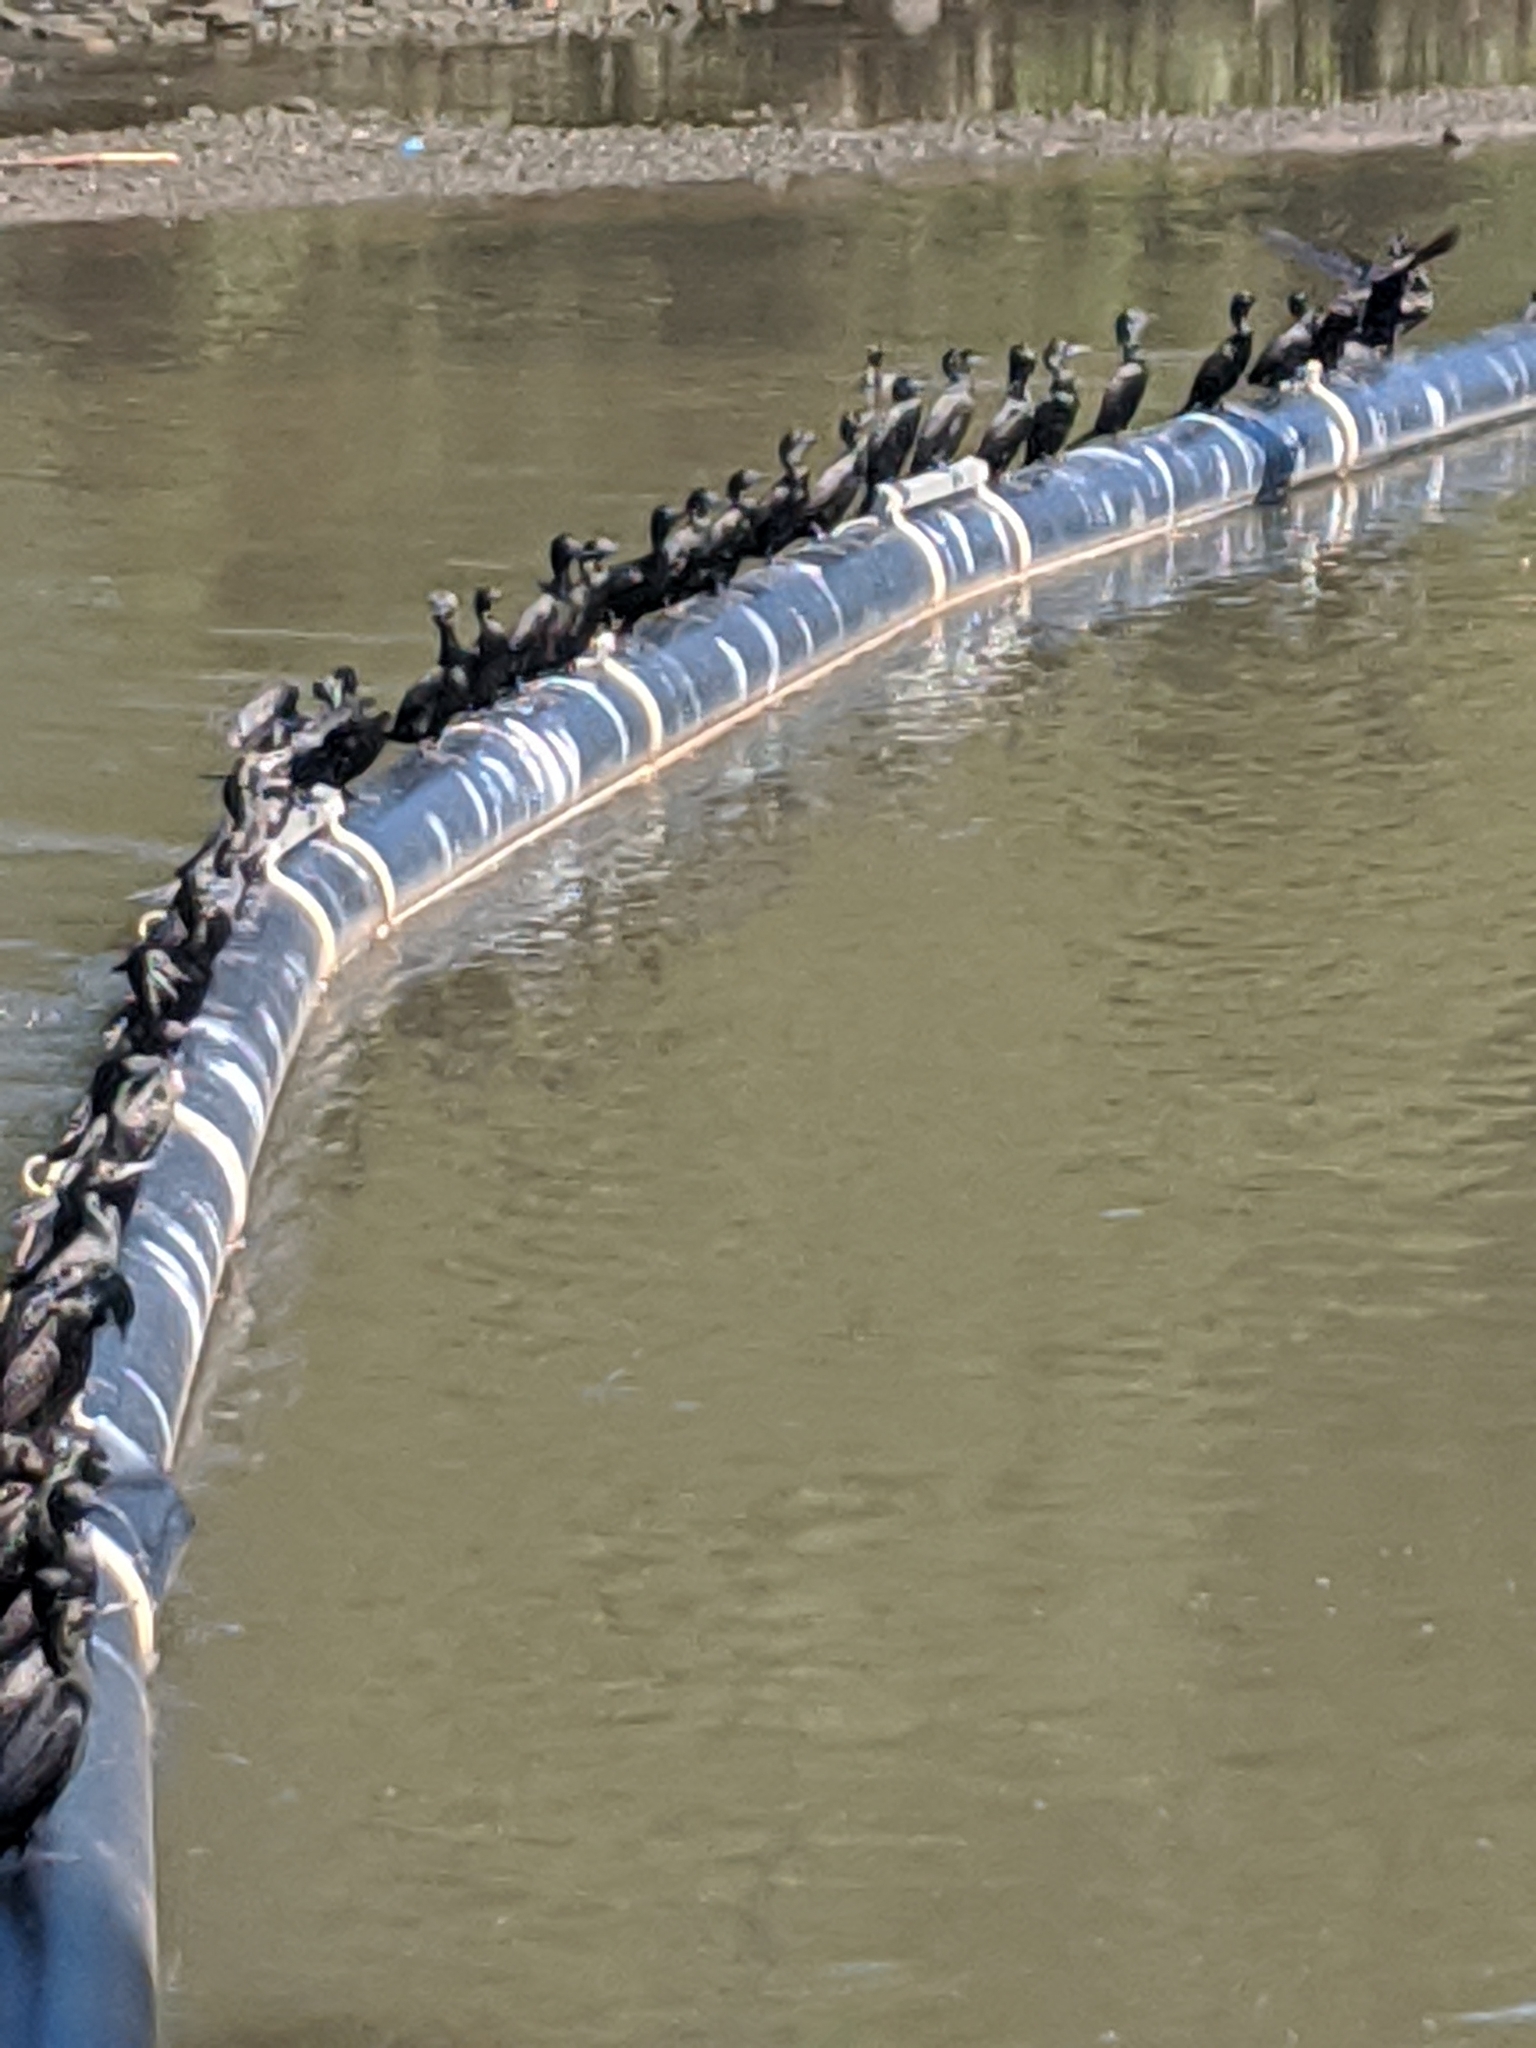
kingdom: Animalia
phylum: Chordata
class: Aves
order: Suliformes
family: Phalacrocoracidae
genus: Phalacrocorax
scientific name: Phalacrocorax sulcirostris
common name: Little black cormorant
